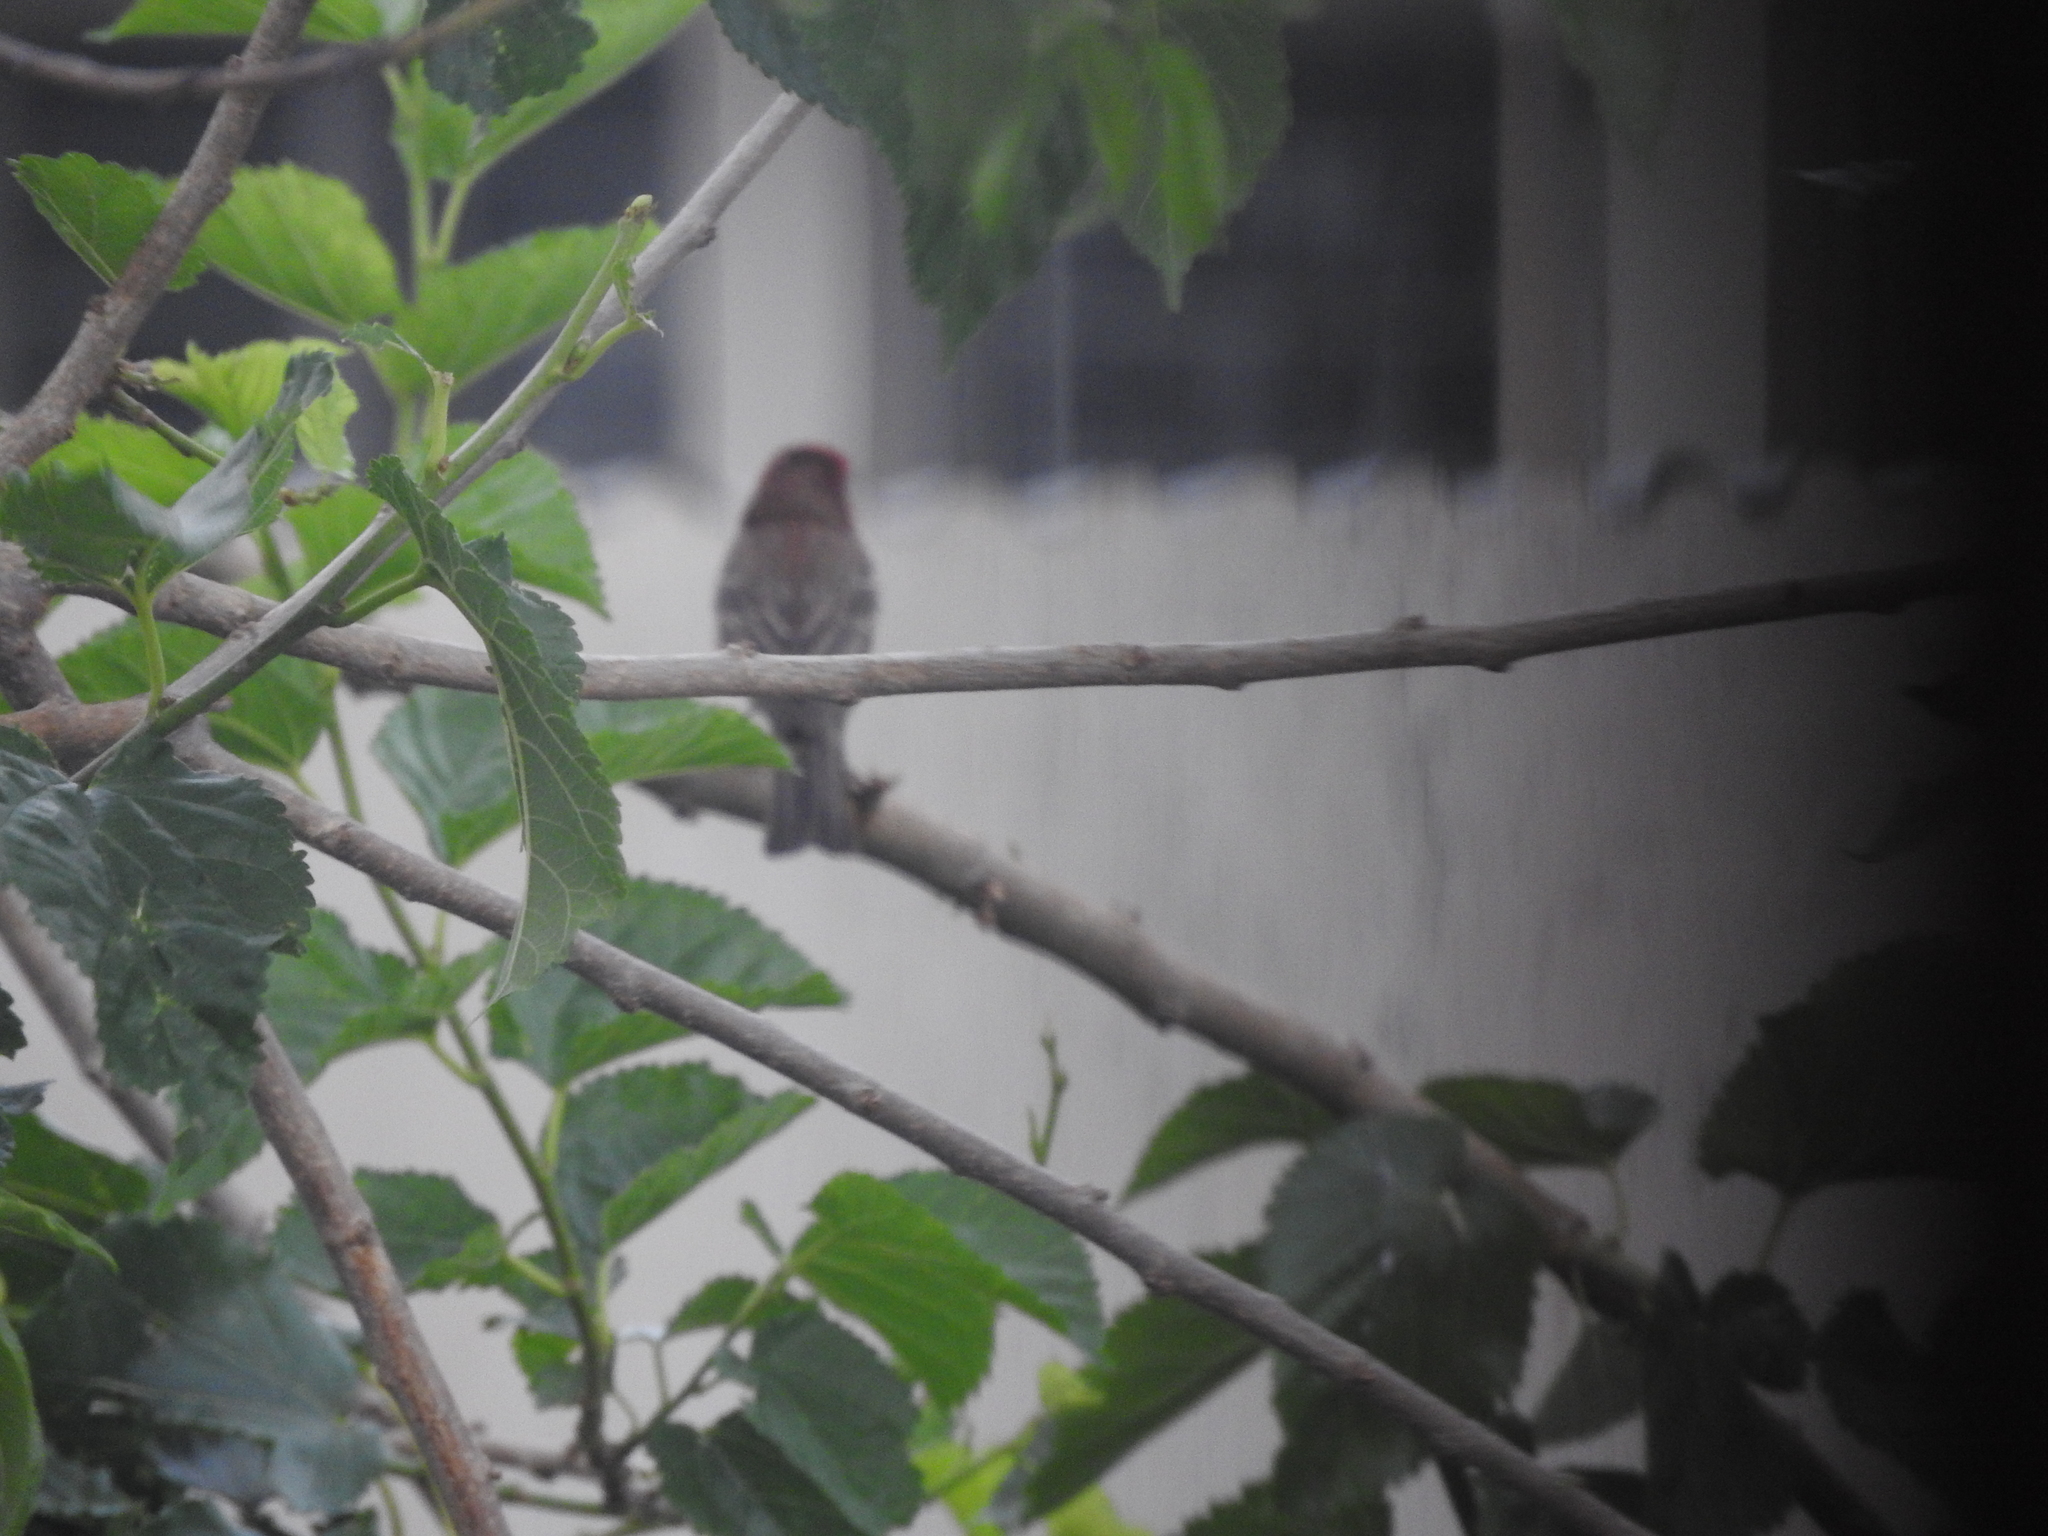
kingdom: Animalia
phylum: Chordata
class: Aves
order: Passeriformes
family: Fringillidae
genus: Haemorhous
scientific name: Haemorhous mexicanus
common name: House finch
